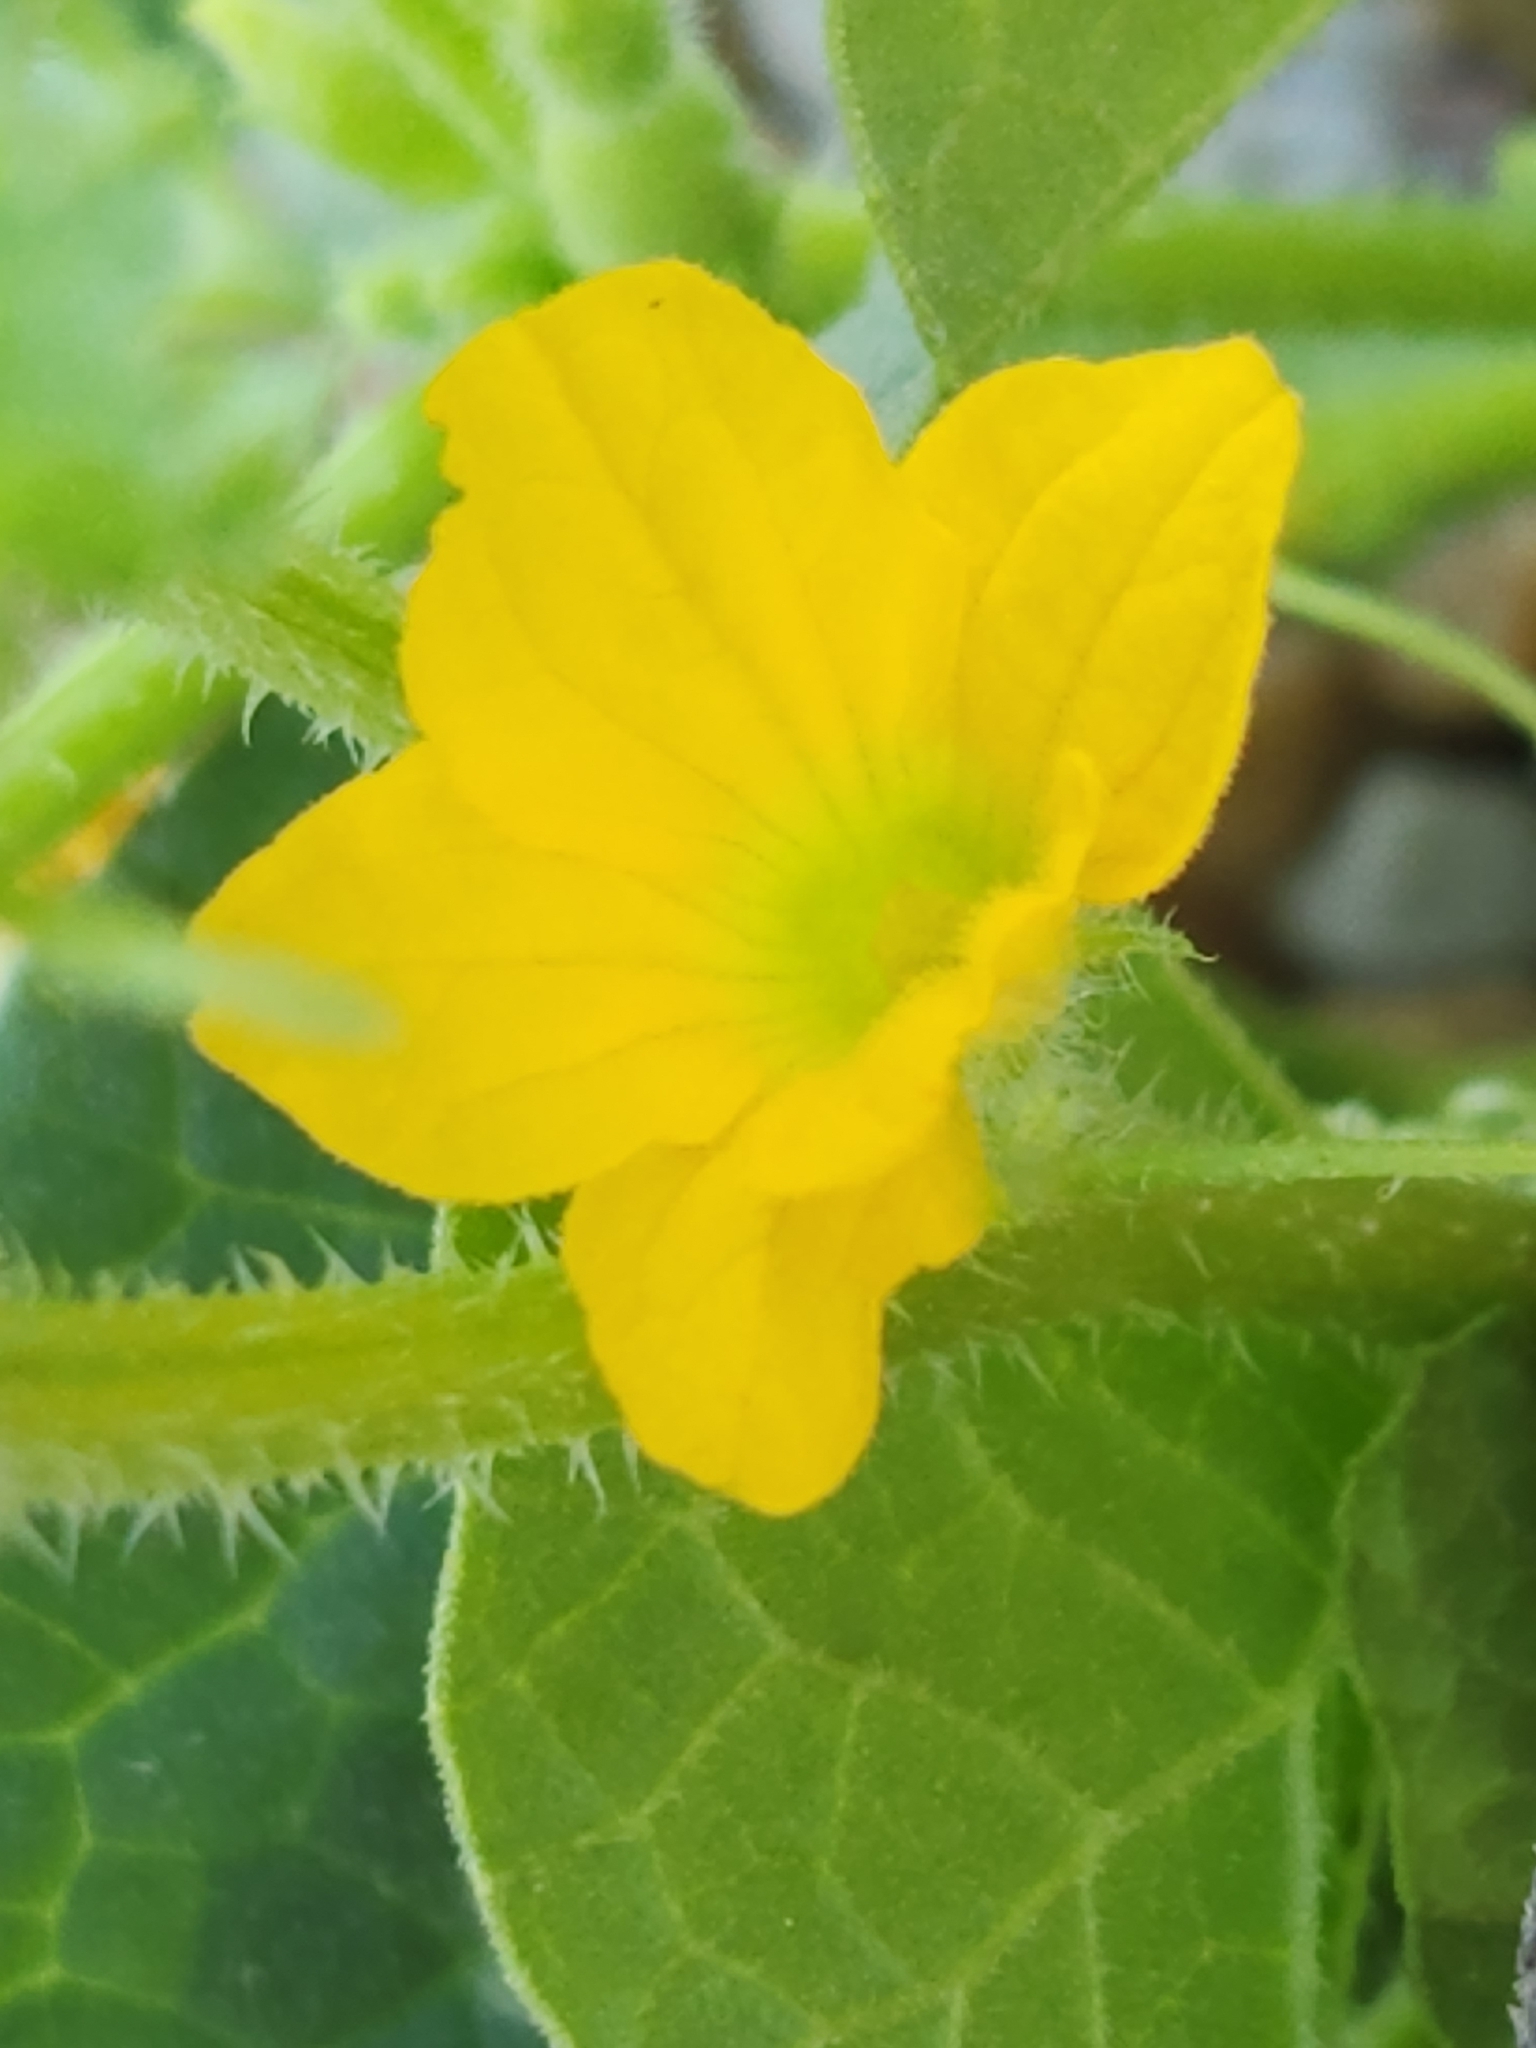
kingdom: Plantae
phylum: Tracheophyta
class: Magnoliopsida
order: Cucurbitales
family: Cucurbitaceae
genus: Cucumis
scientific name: Cucumis melo
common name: Melon
